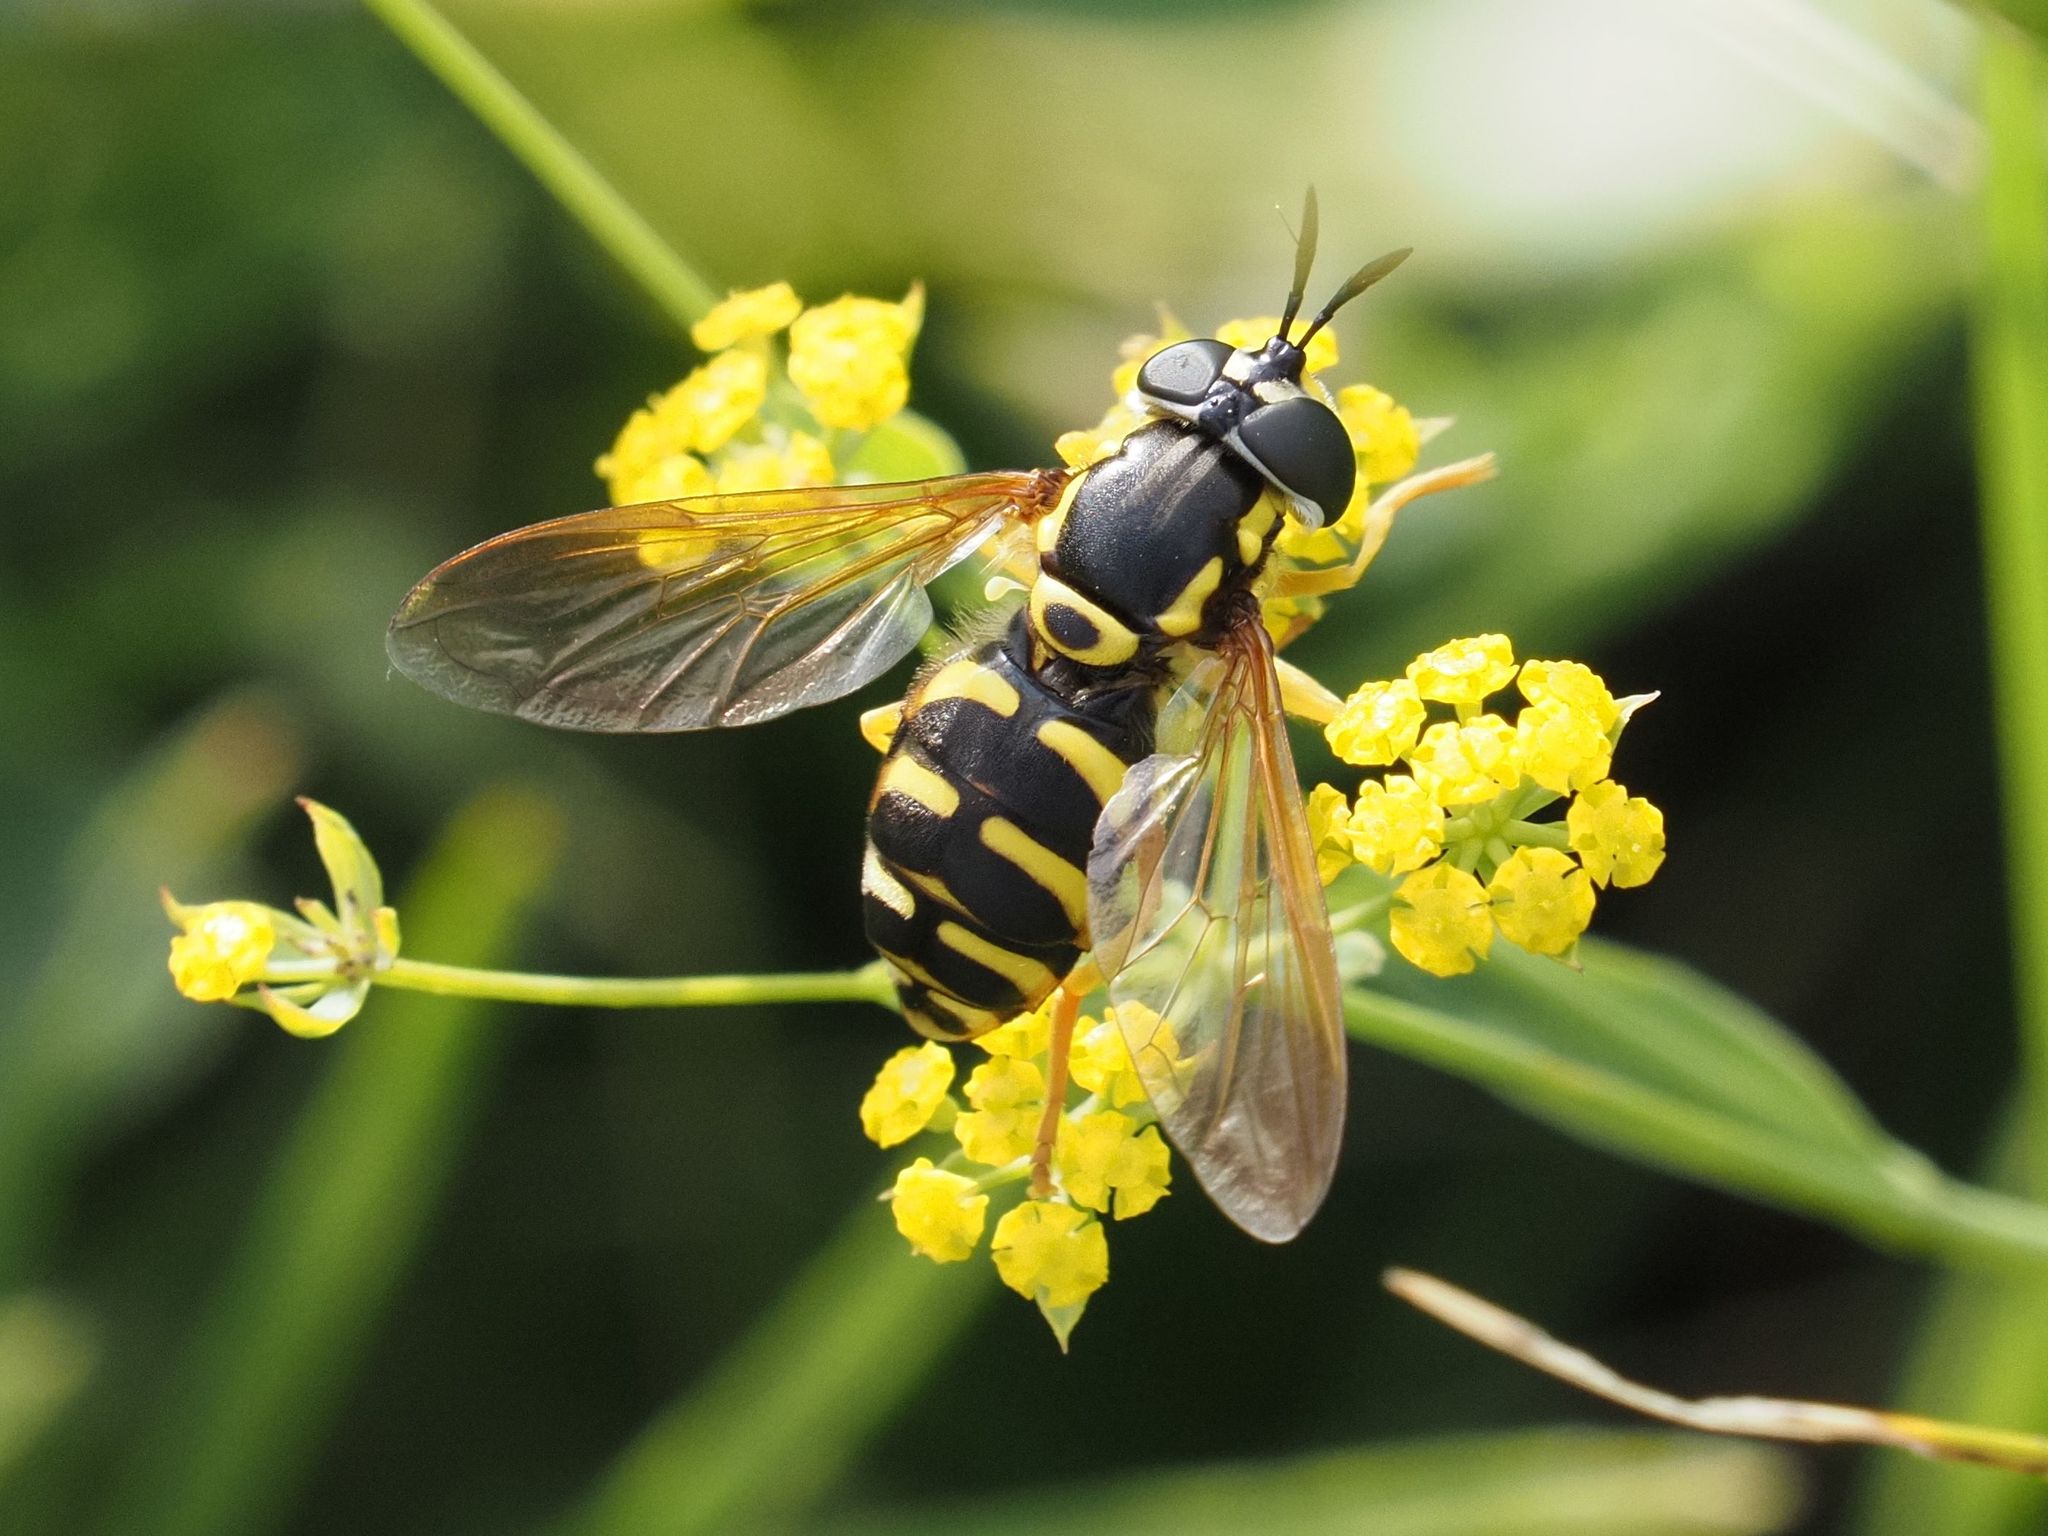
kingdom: Animalia
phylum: Arthropoda
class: Insecta
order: Diptera
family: Syrphidae
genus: Chrysotoxum
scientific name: Chrysotoxum elegans
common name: Zipperback
